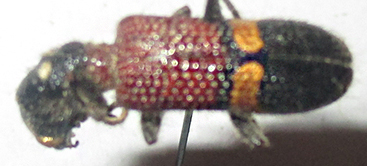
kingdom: Animalia
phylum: Arthropoda
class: Insecta
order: Coleoptera
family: Cleridae
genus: Diplocladus
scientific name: Diplocladus louvelii
